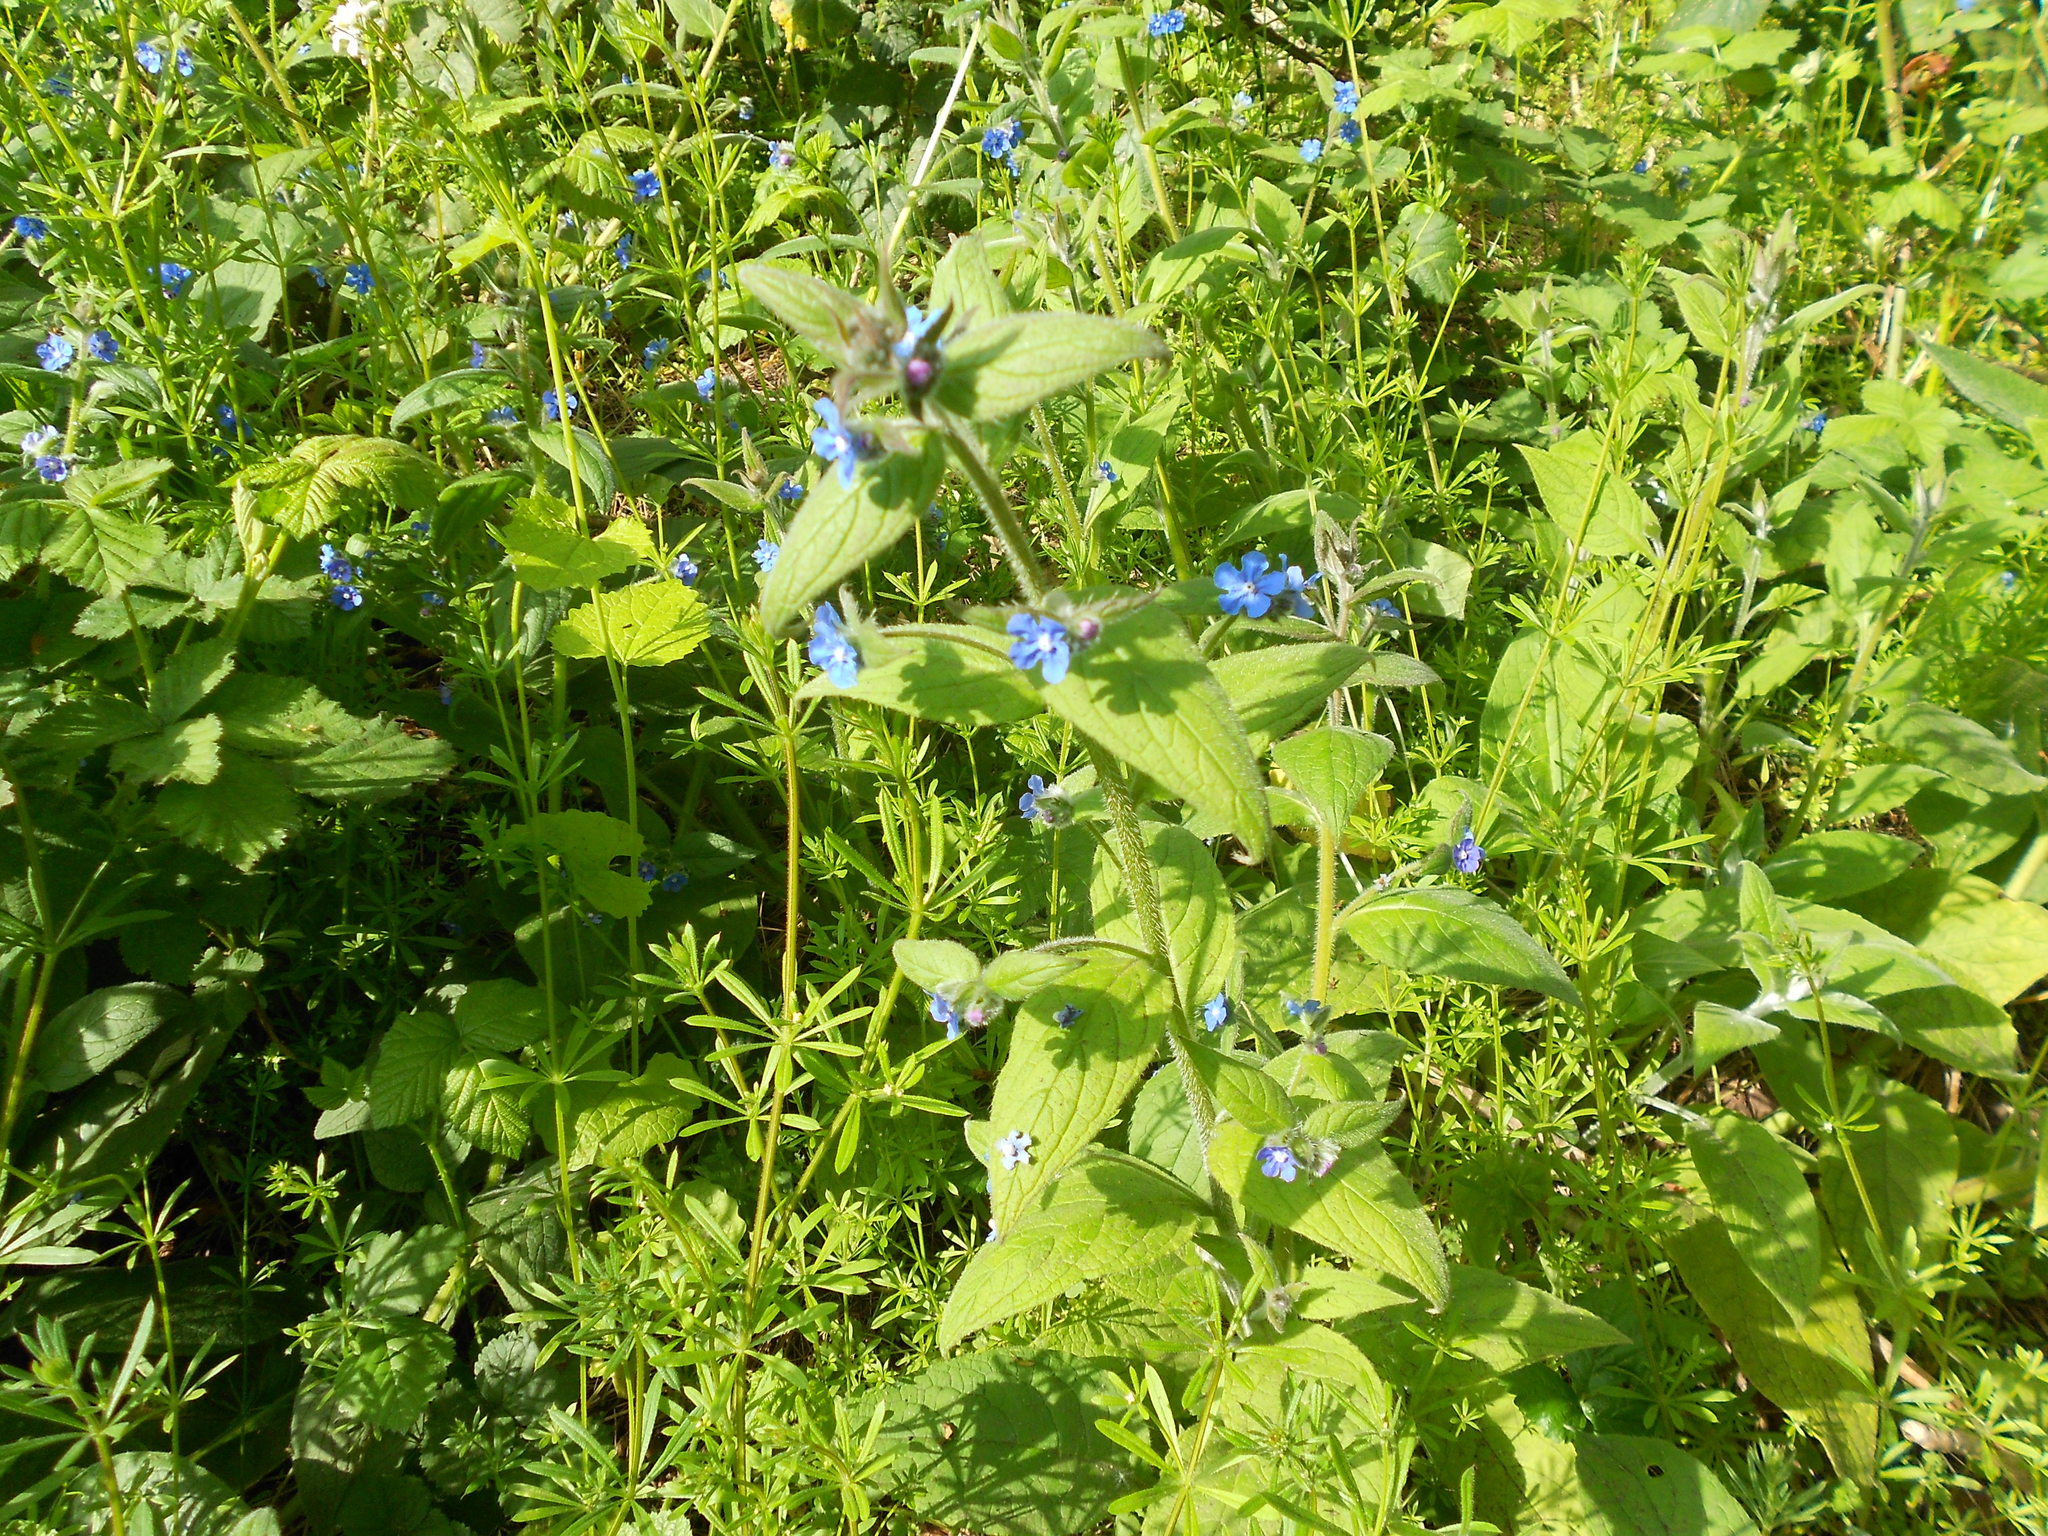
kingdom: Plantae
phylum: Tracheophyta
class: Magnoliopsida
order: Boraginales
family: Boraginaceae
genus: Pentaglottis
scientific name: Pentaglottis sempervirens
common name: Green alkanet
